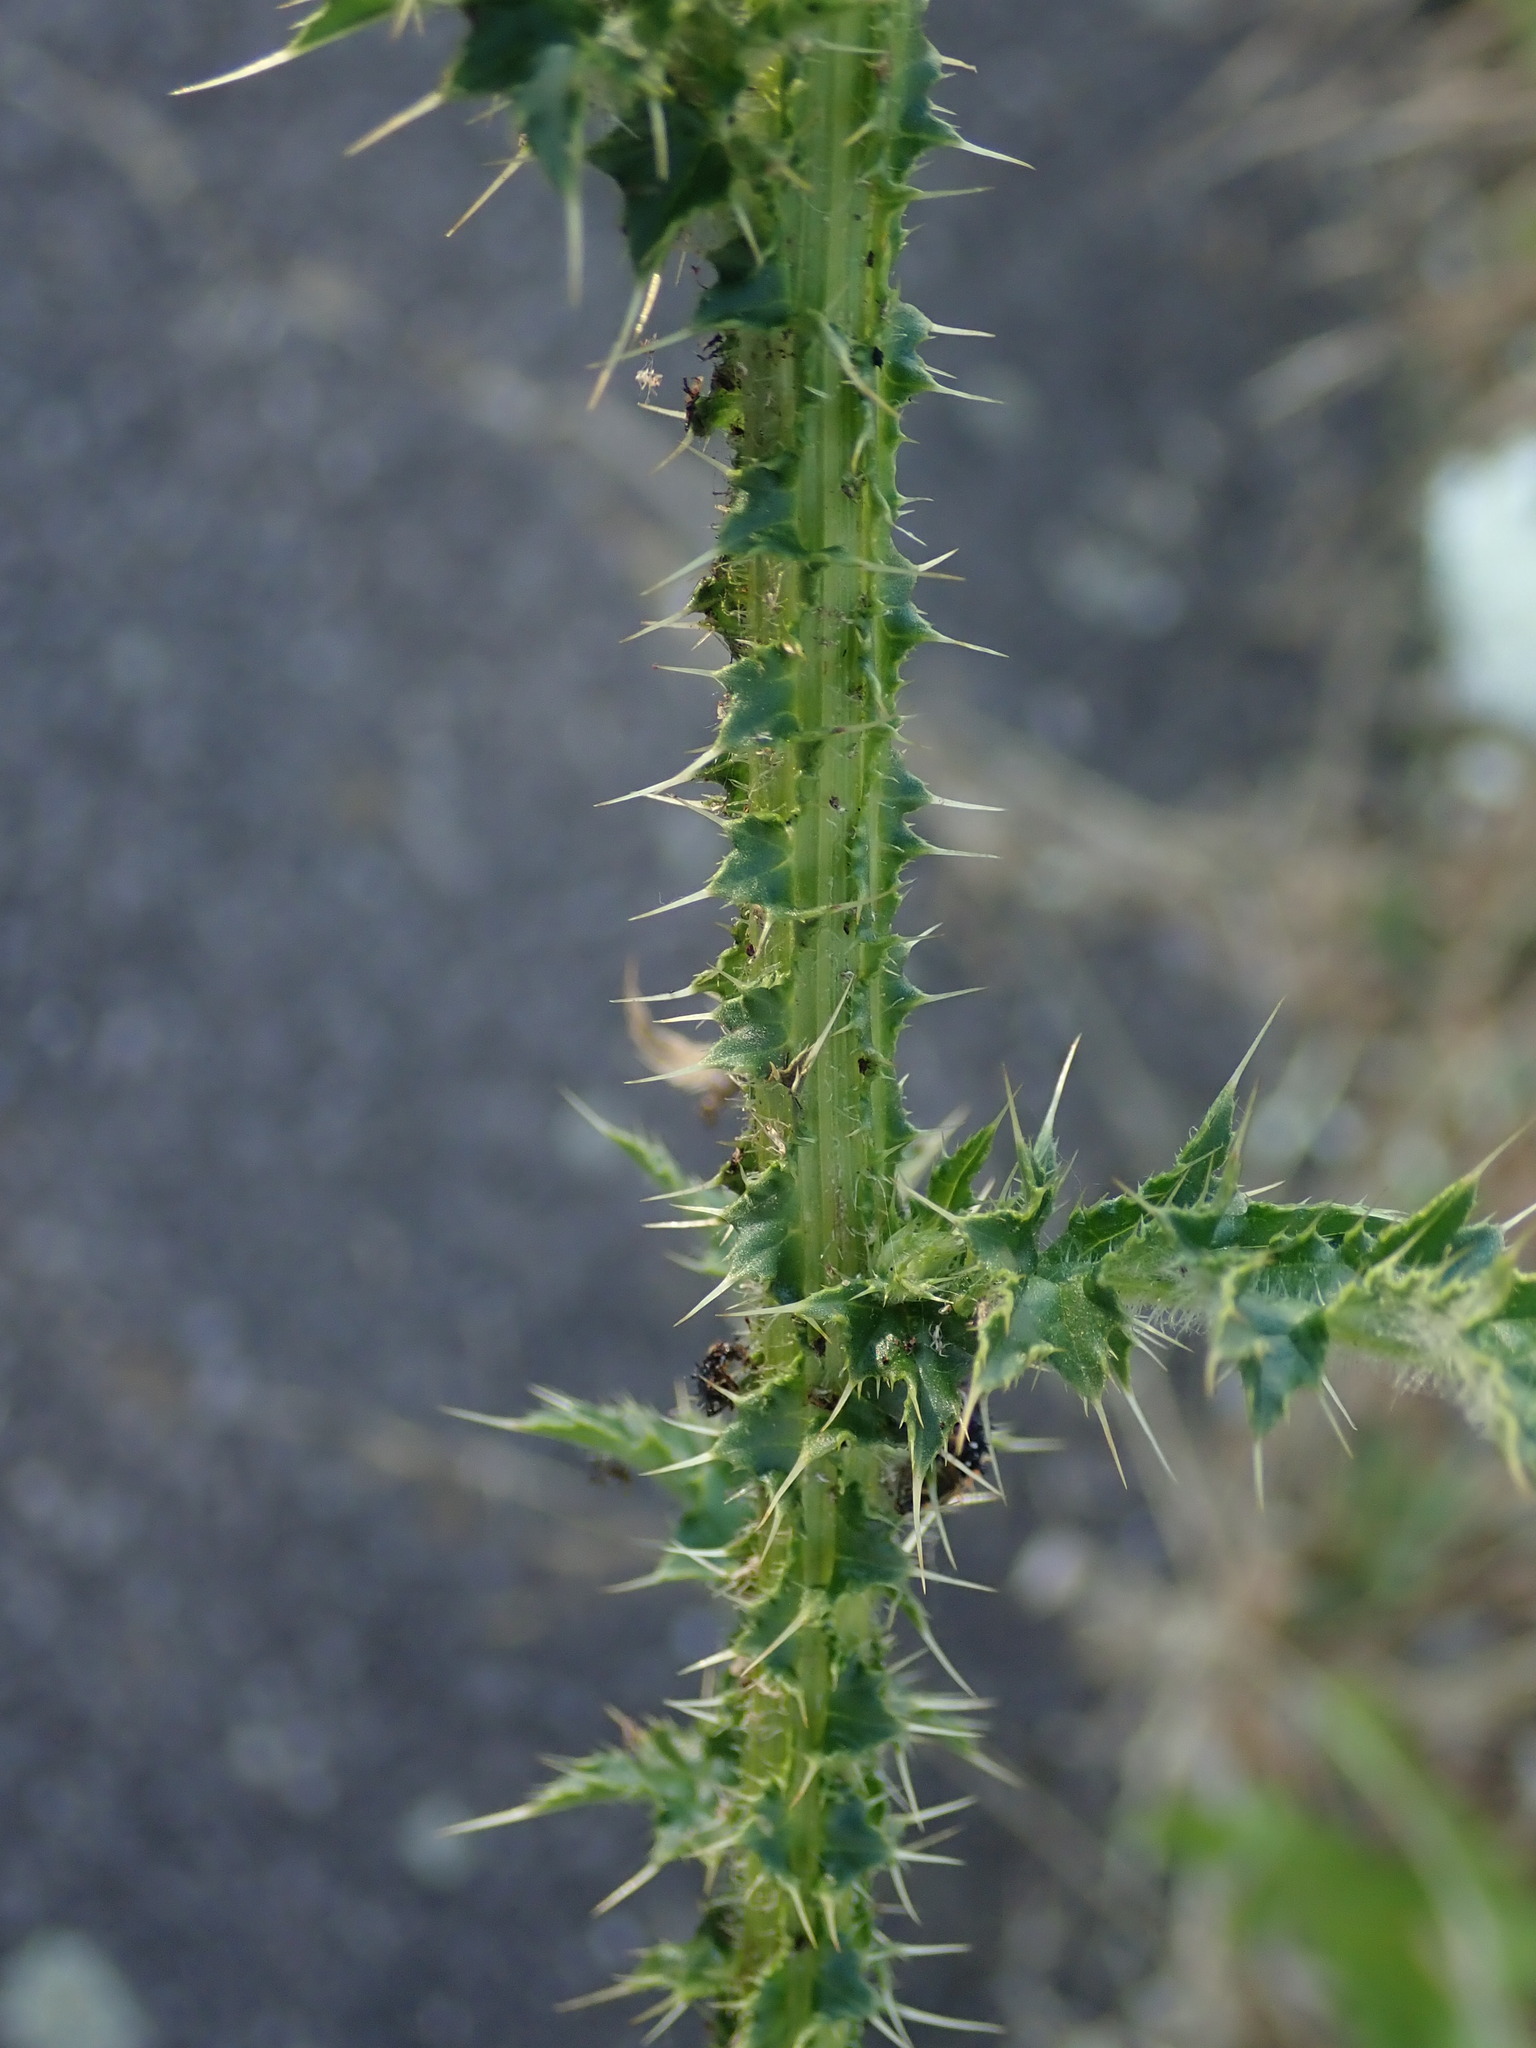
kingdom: Plantae
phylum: Tracheophyta
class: Magnoliopsida
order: Asterales
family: Asteraceae
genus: Carduus
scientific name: Carduus crispus
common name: Welted thistle
